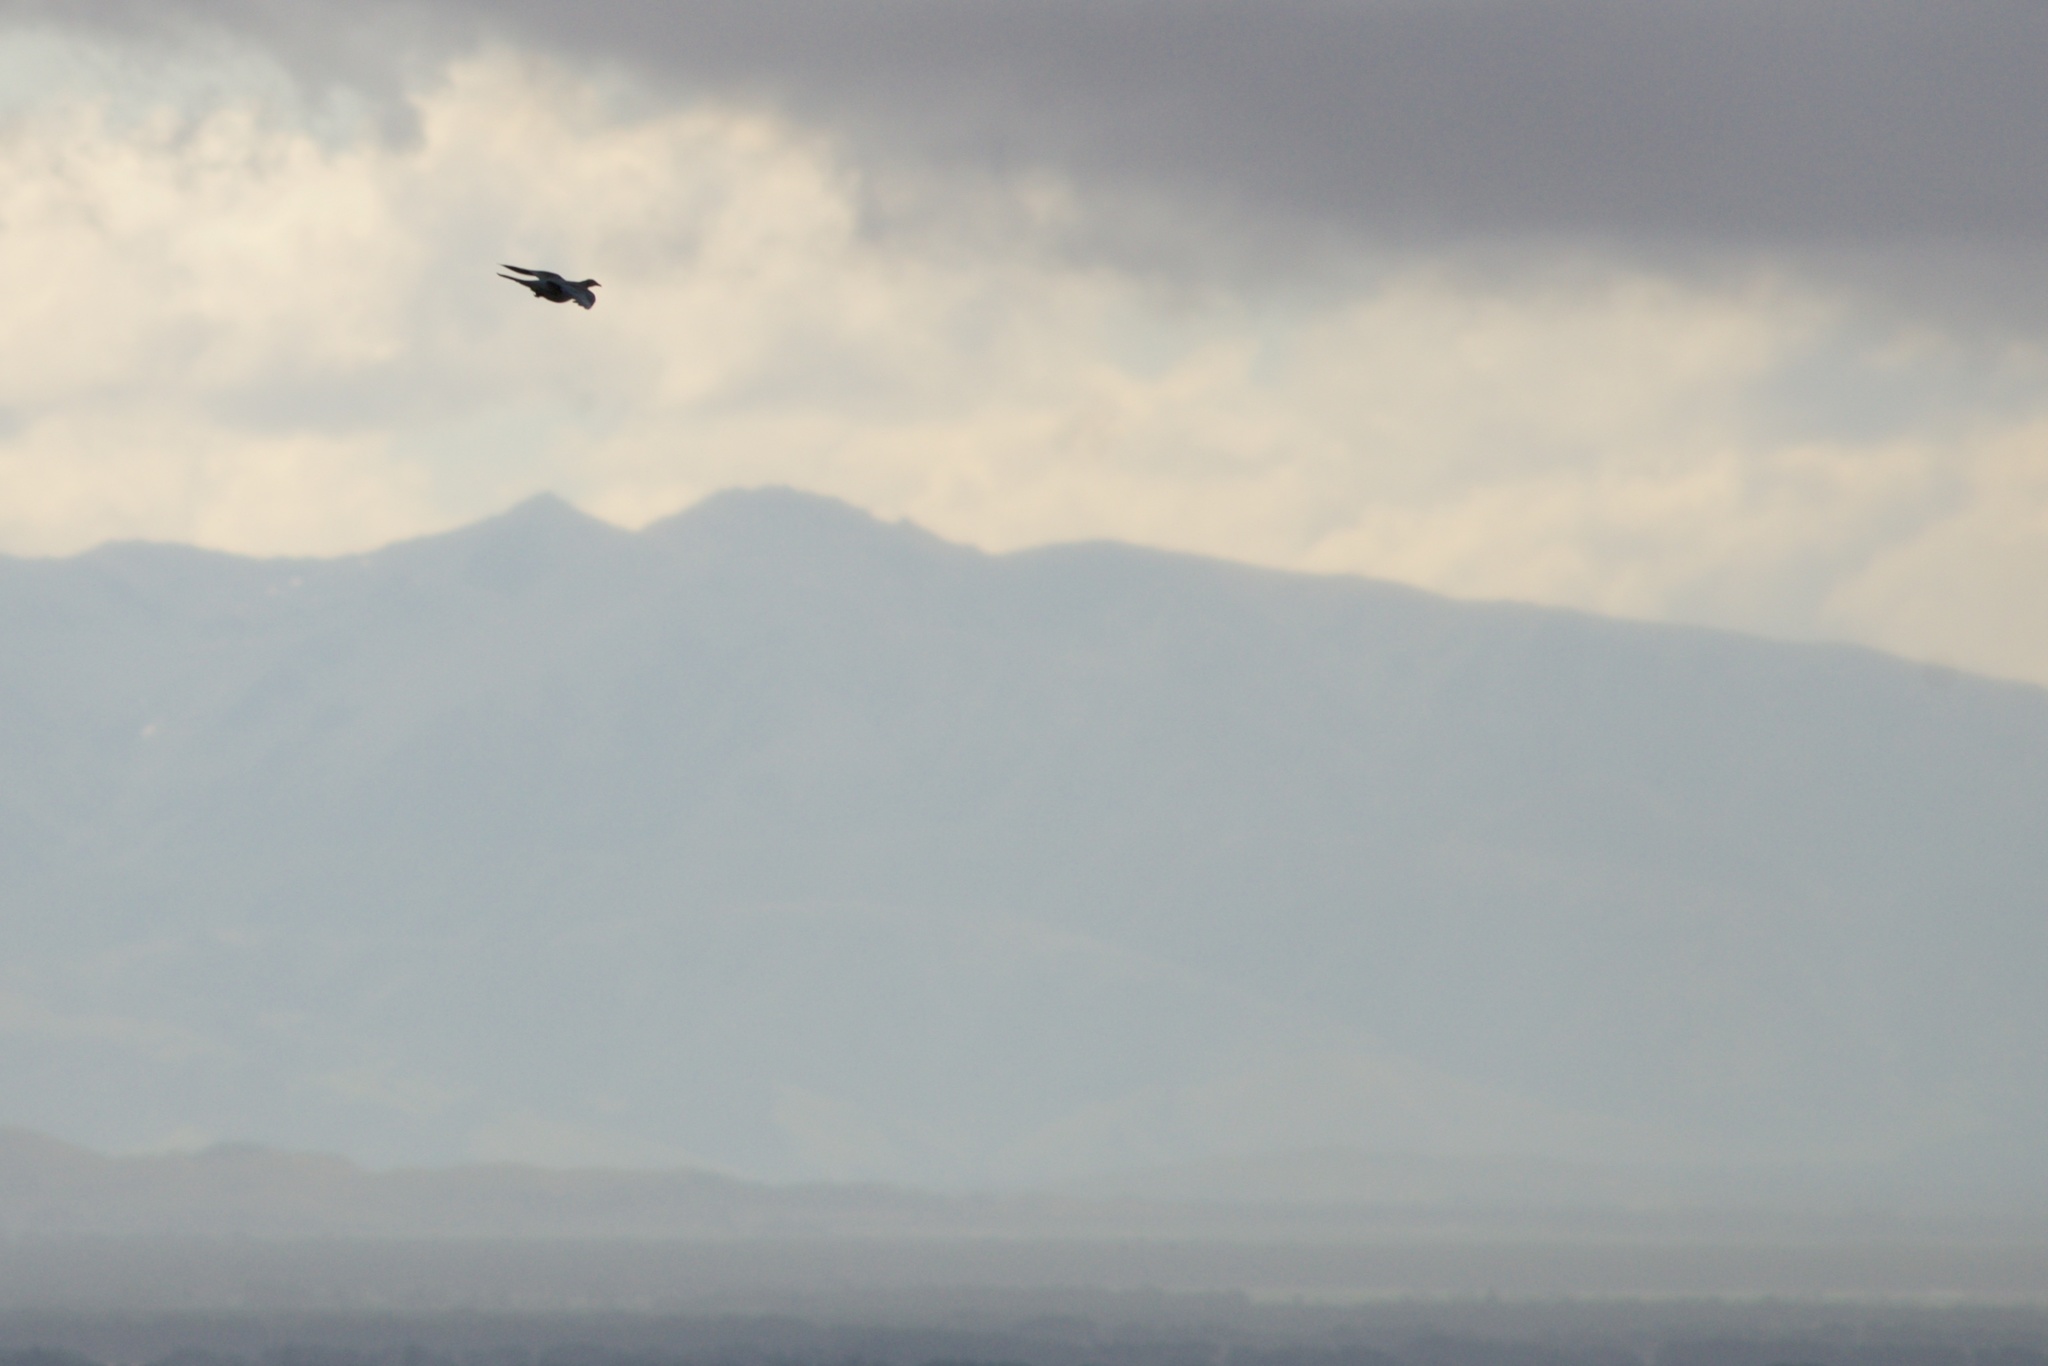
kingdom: Animalia
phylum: Chordata
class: Aves
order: Columbiformes
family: Columbidae
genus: Hemiphaga
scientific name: Hemiphaga novaeseelandiae
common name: New zealand pigeon
